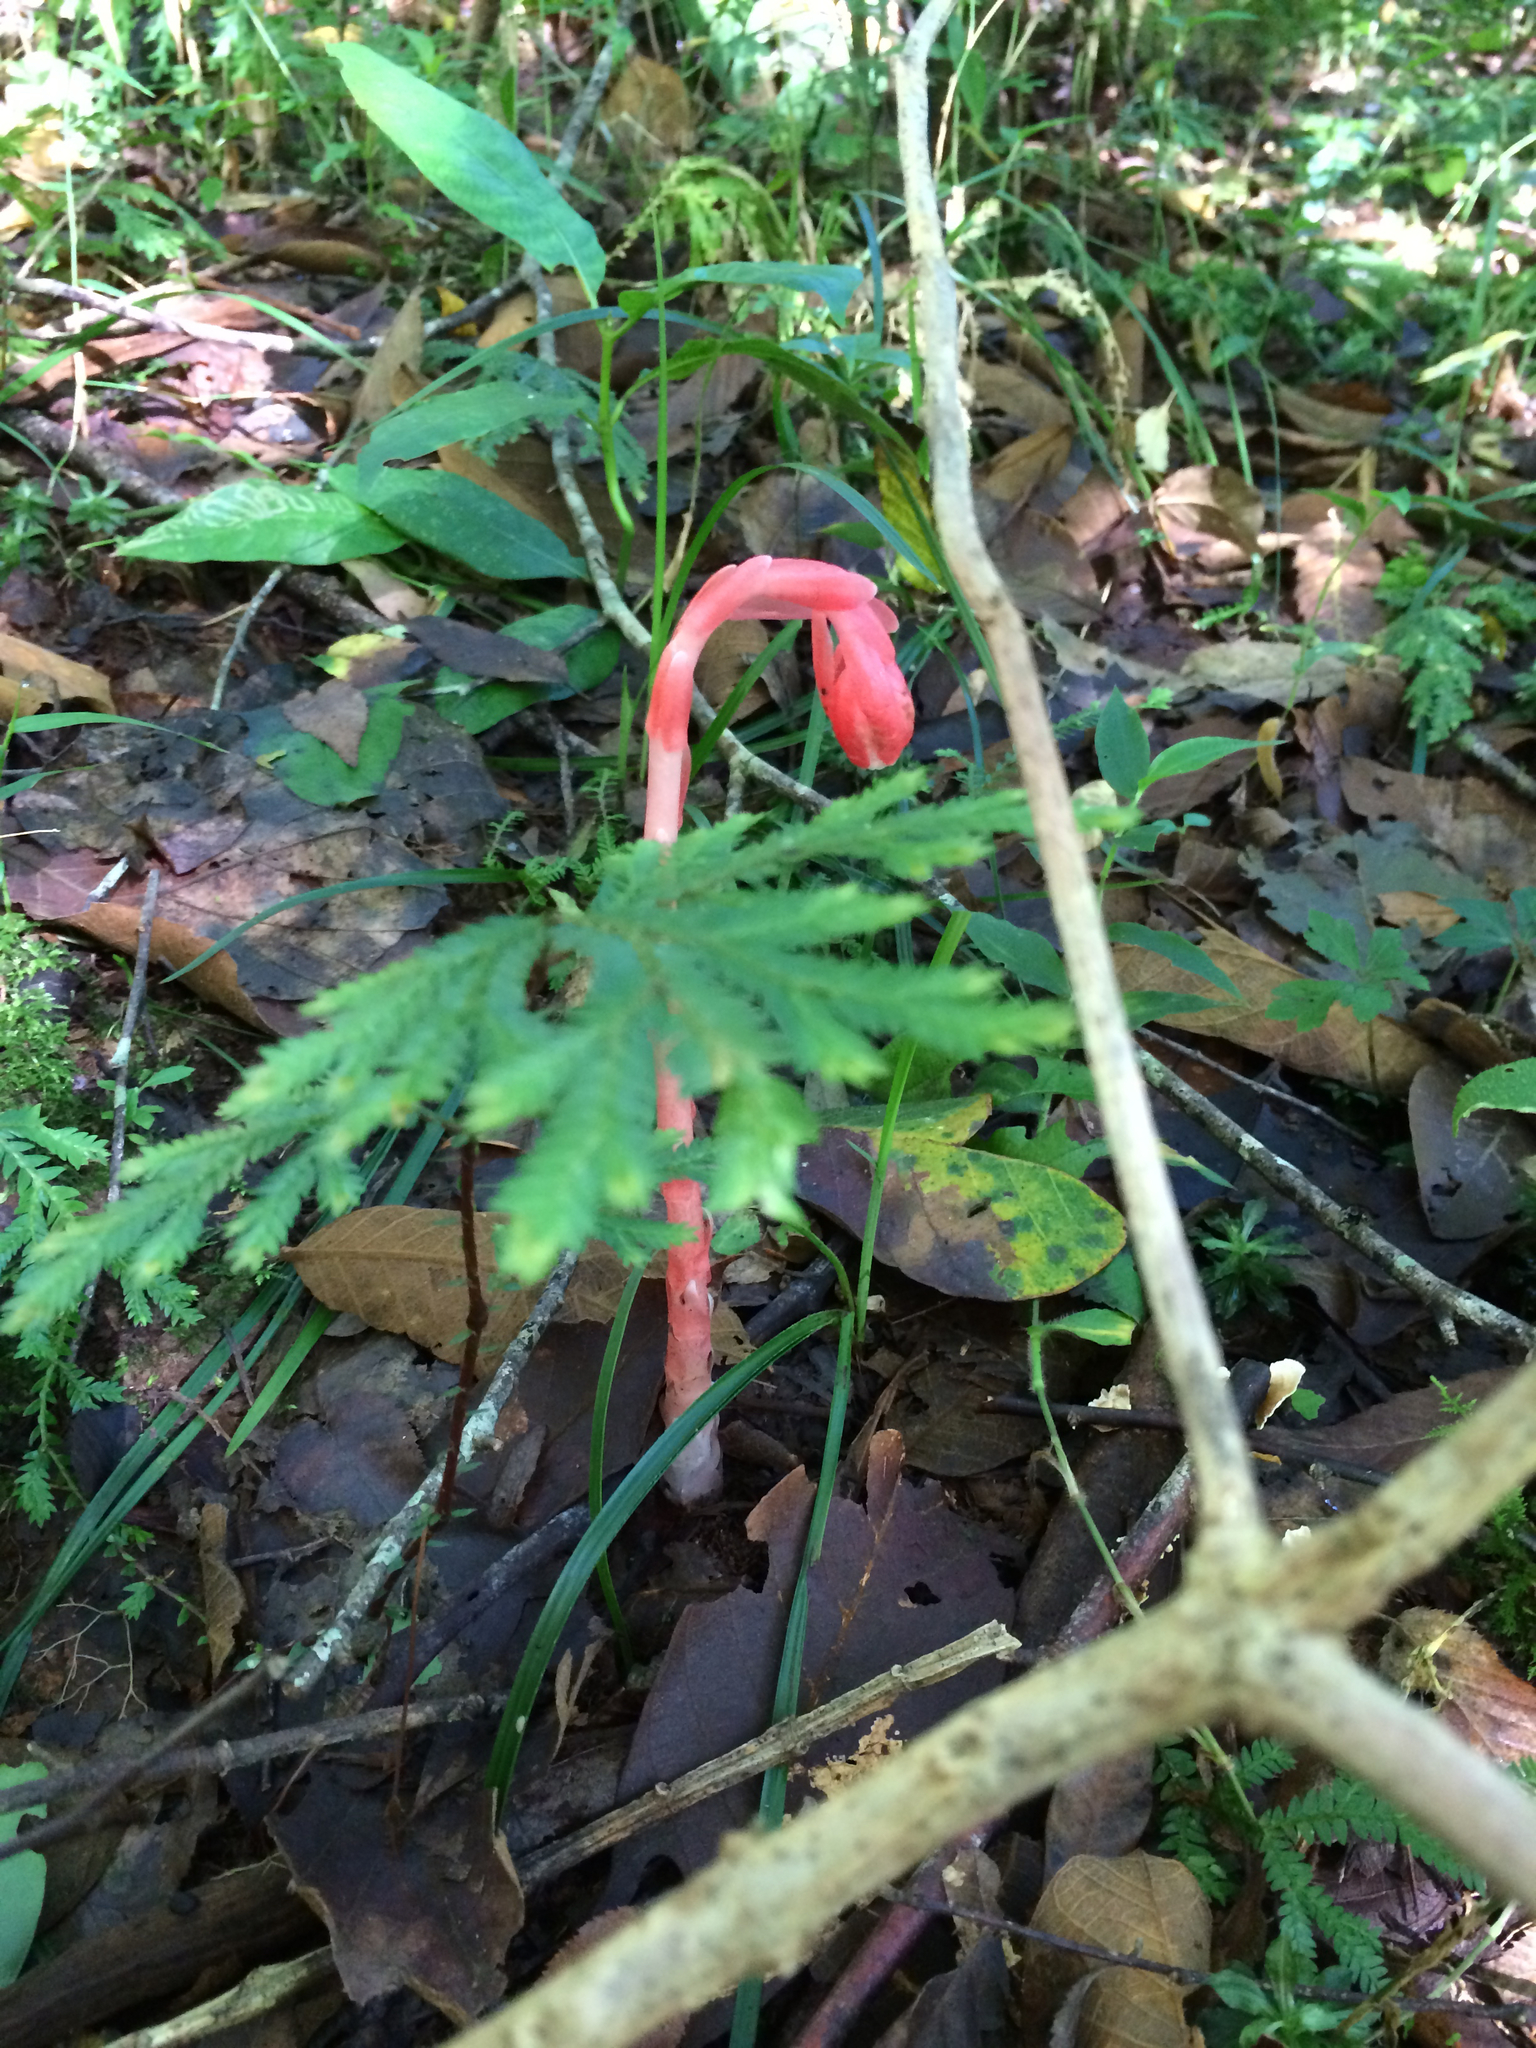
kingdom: Plantae
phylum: Tracheophyta
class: Magnoliopsida
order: Ericales
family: Ericaceae
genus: Monotropa
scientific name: Monotropa coccinea
